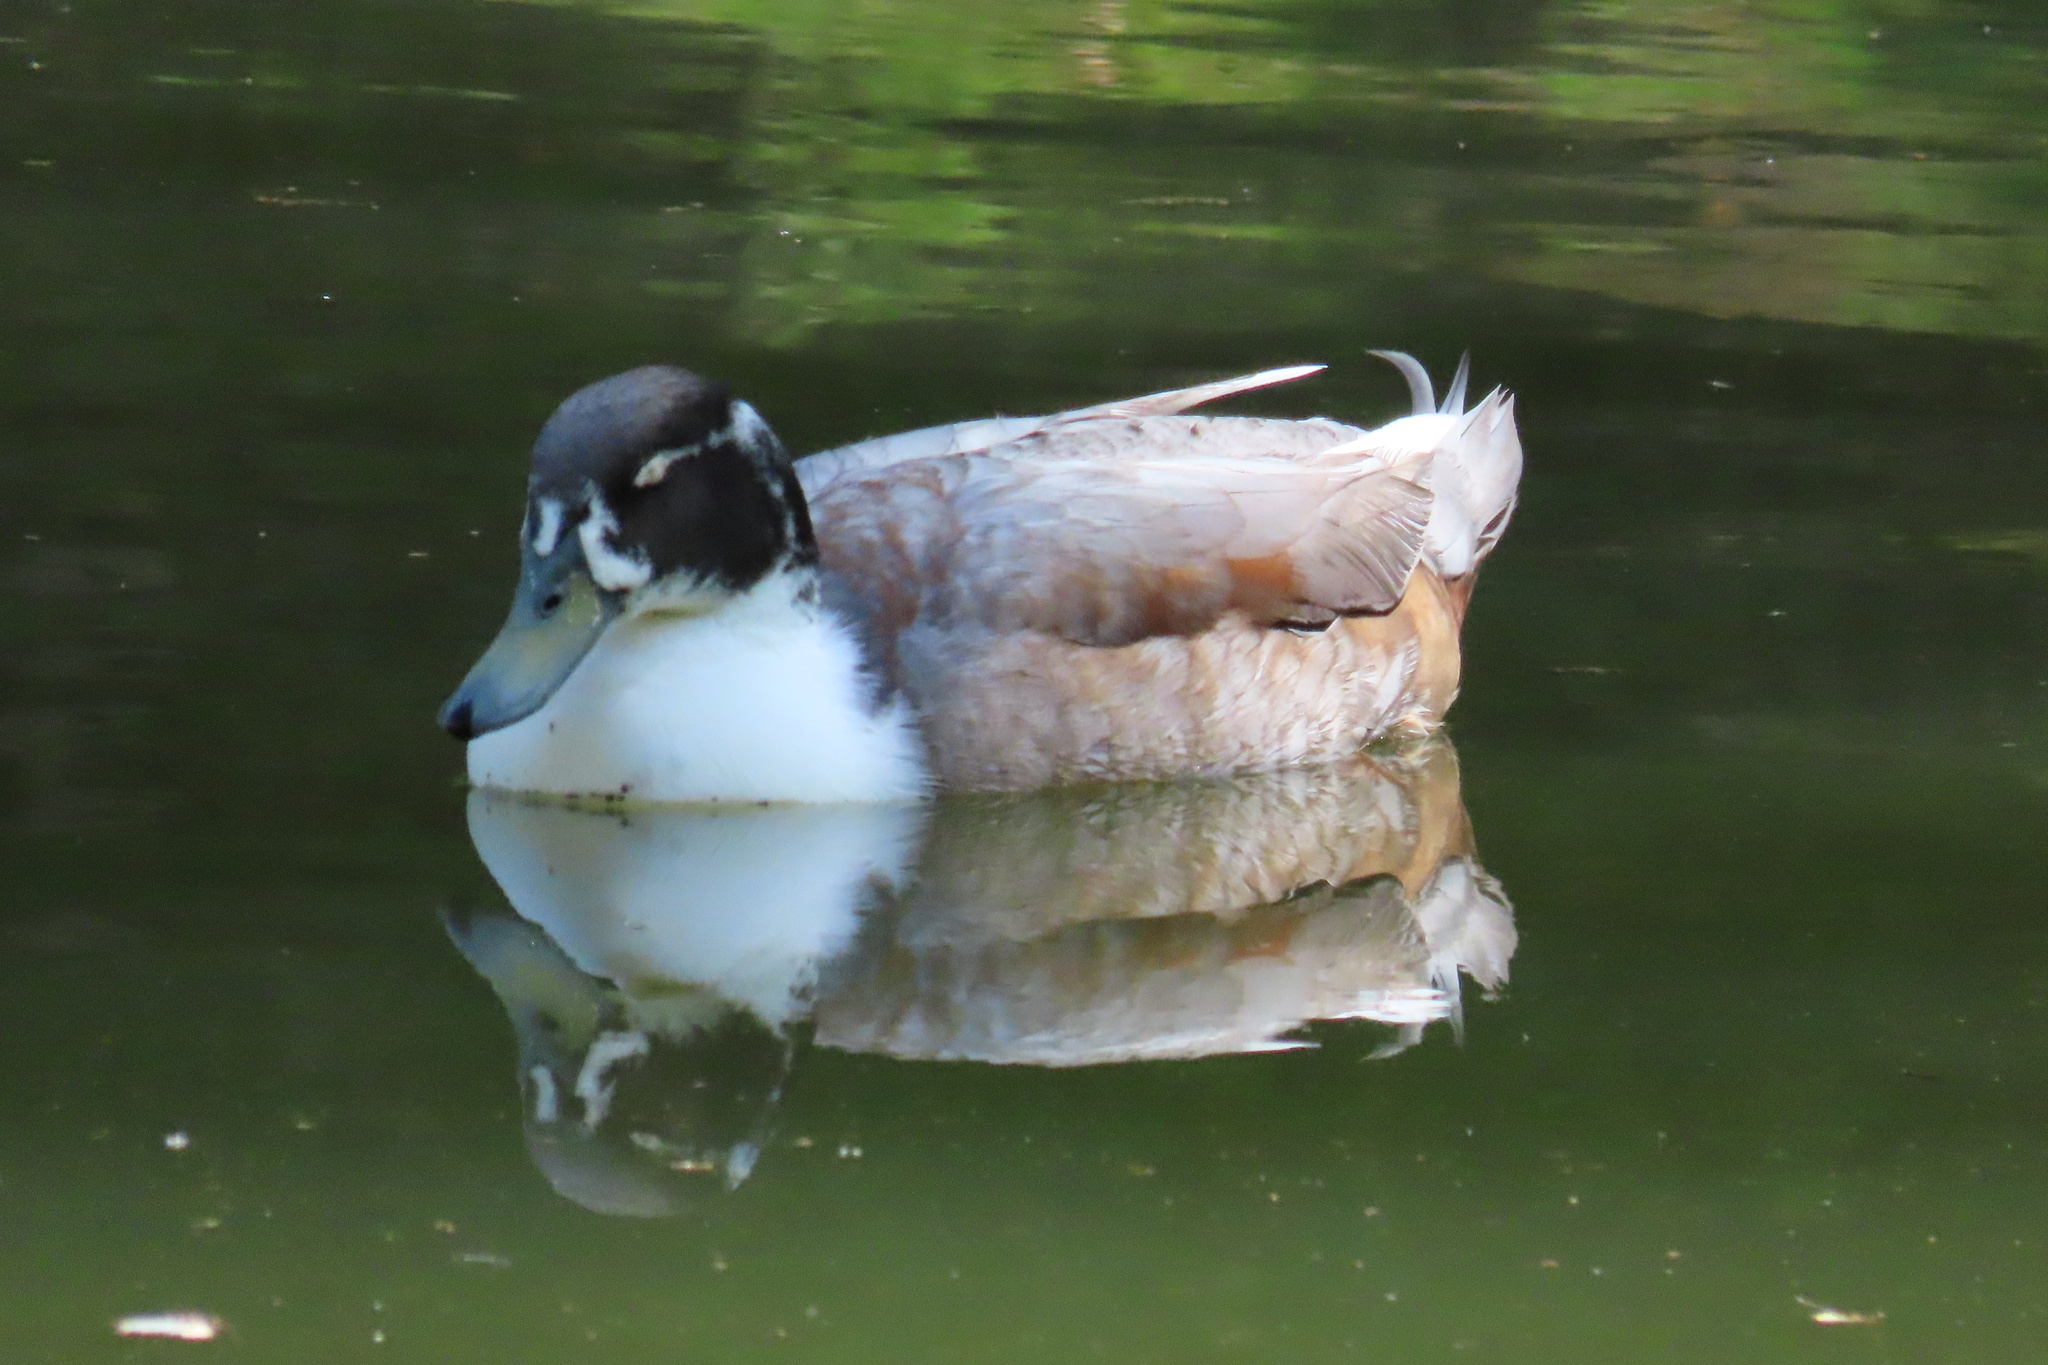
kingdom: Animalia
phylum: Chordata
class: Aves
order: Anseriformes
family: Anatidae
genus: Anas
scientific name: Anas platyrhynchos
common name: Mallard
